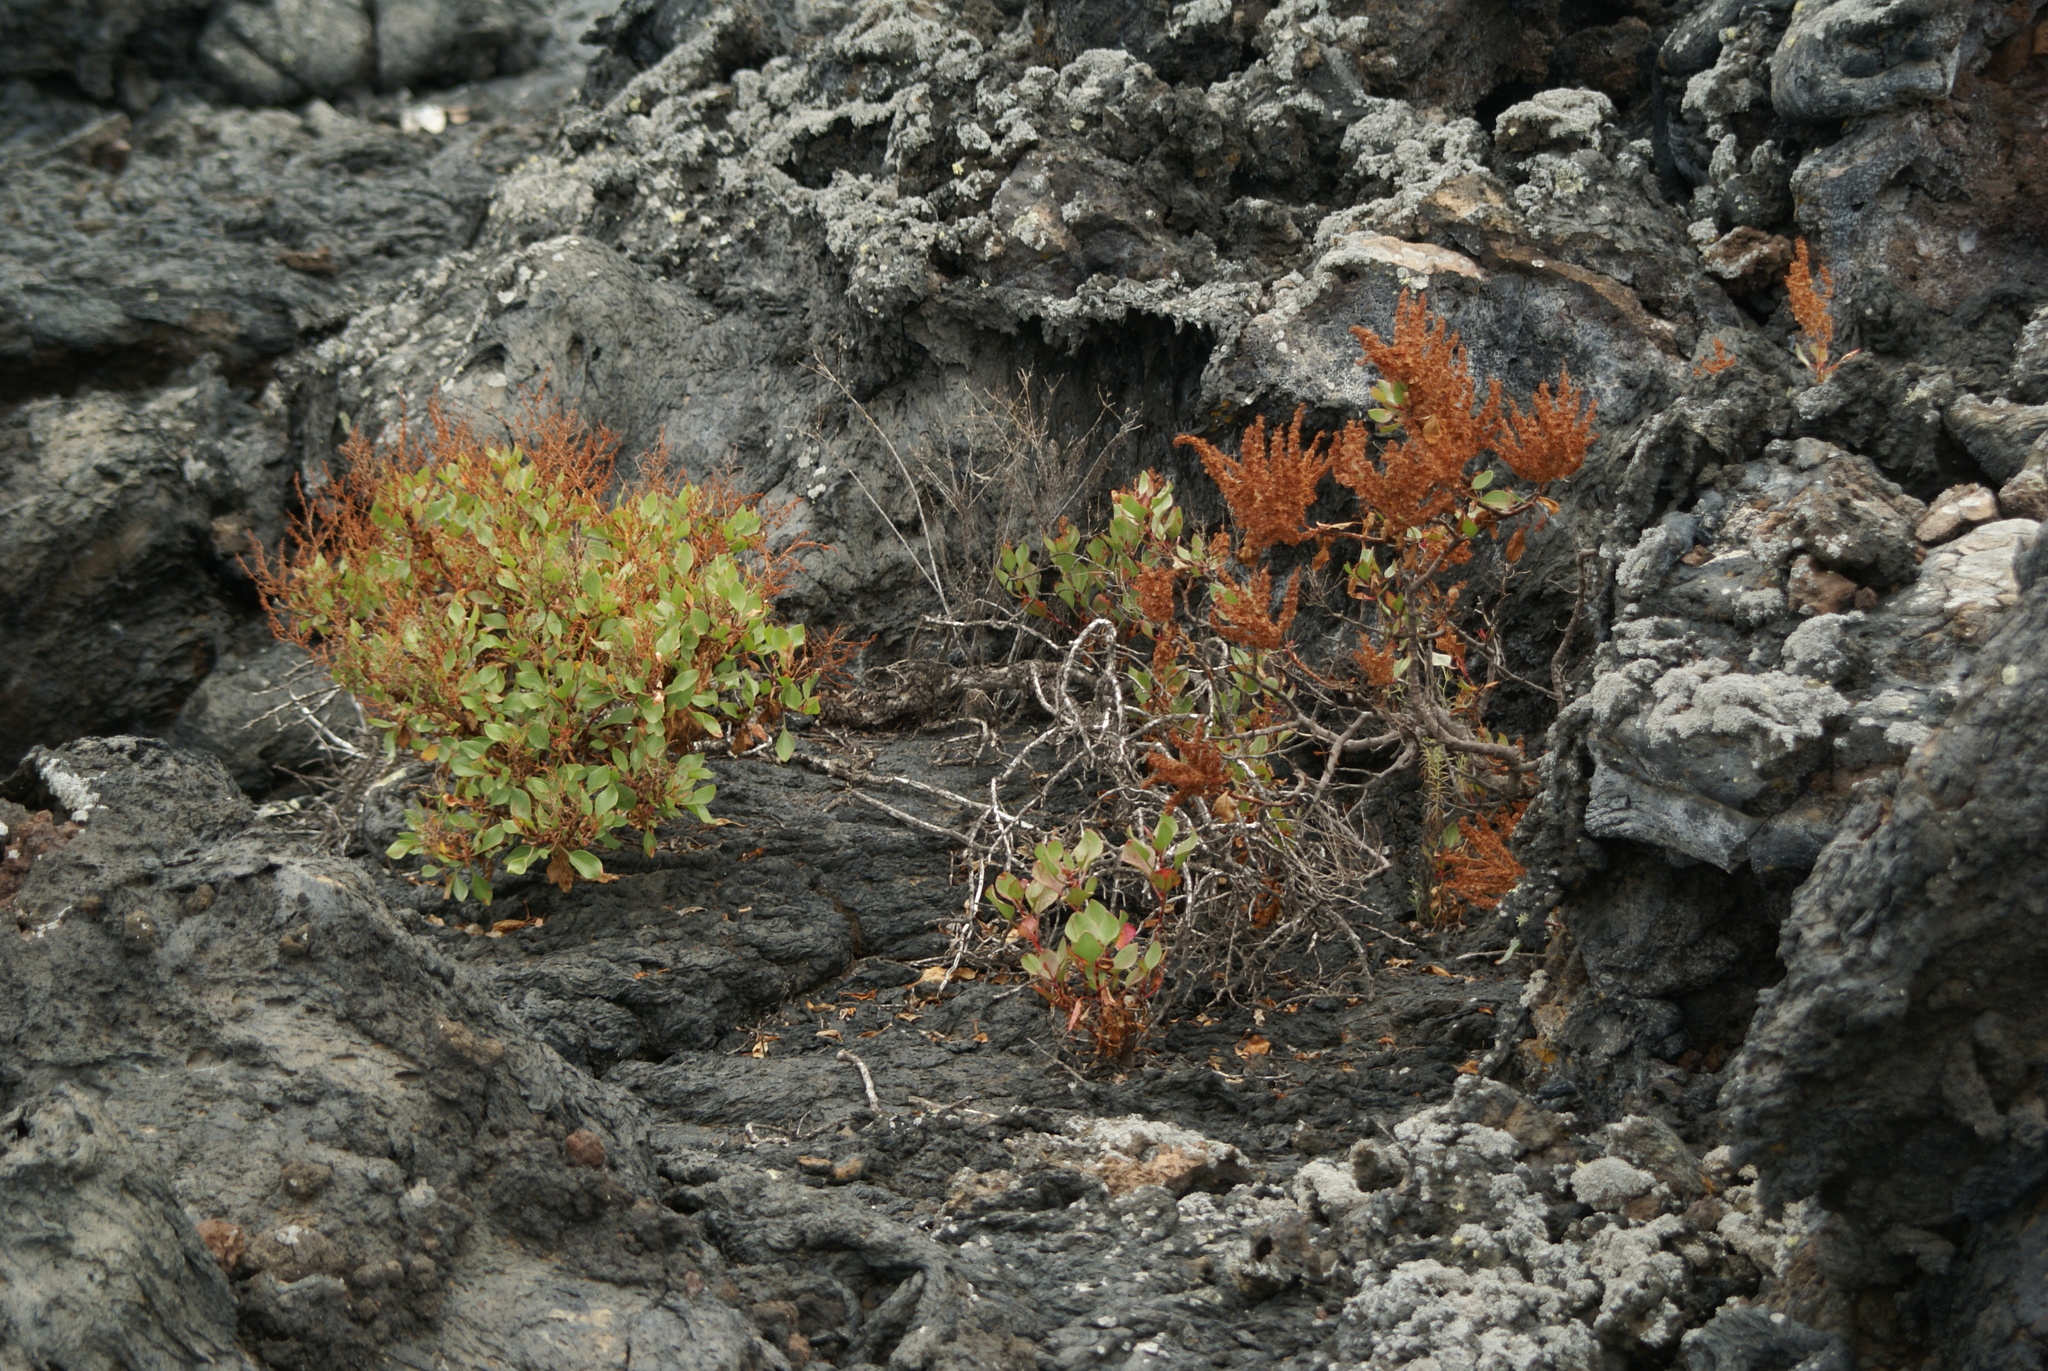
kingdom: Plantae
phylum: Tracheophyta
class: Magnoliopsida
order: Caryophyllales
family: Polygonaceae
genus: Rumex
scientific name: Rumex lunaria
